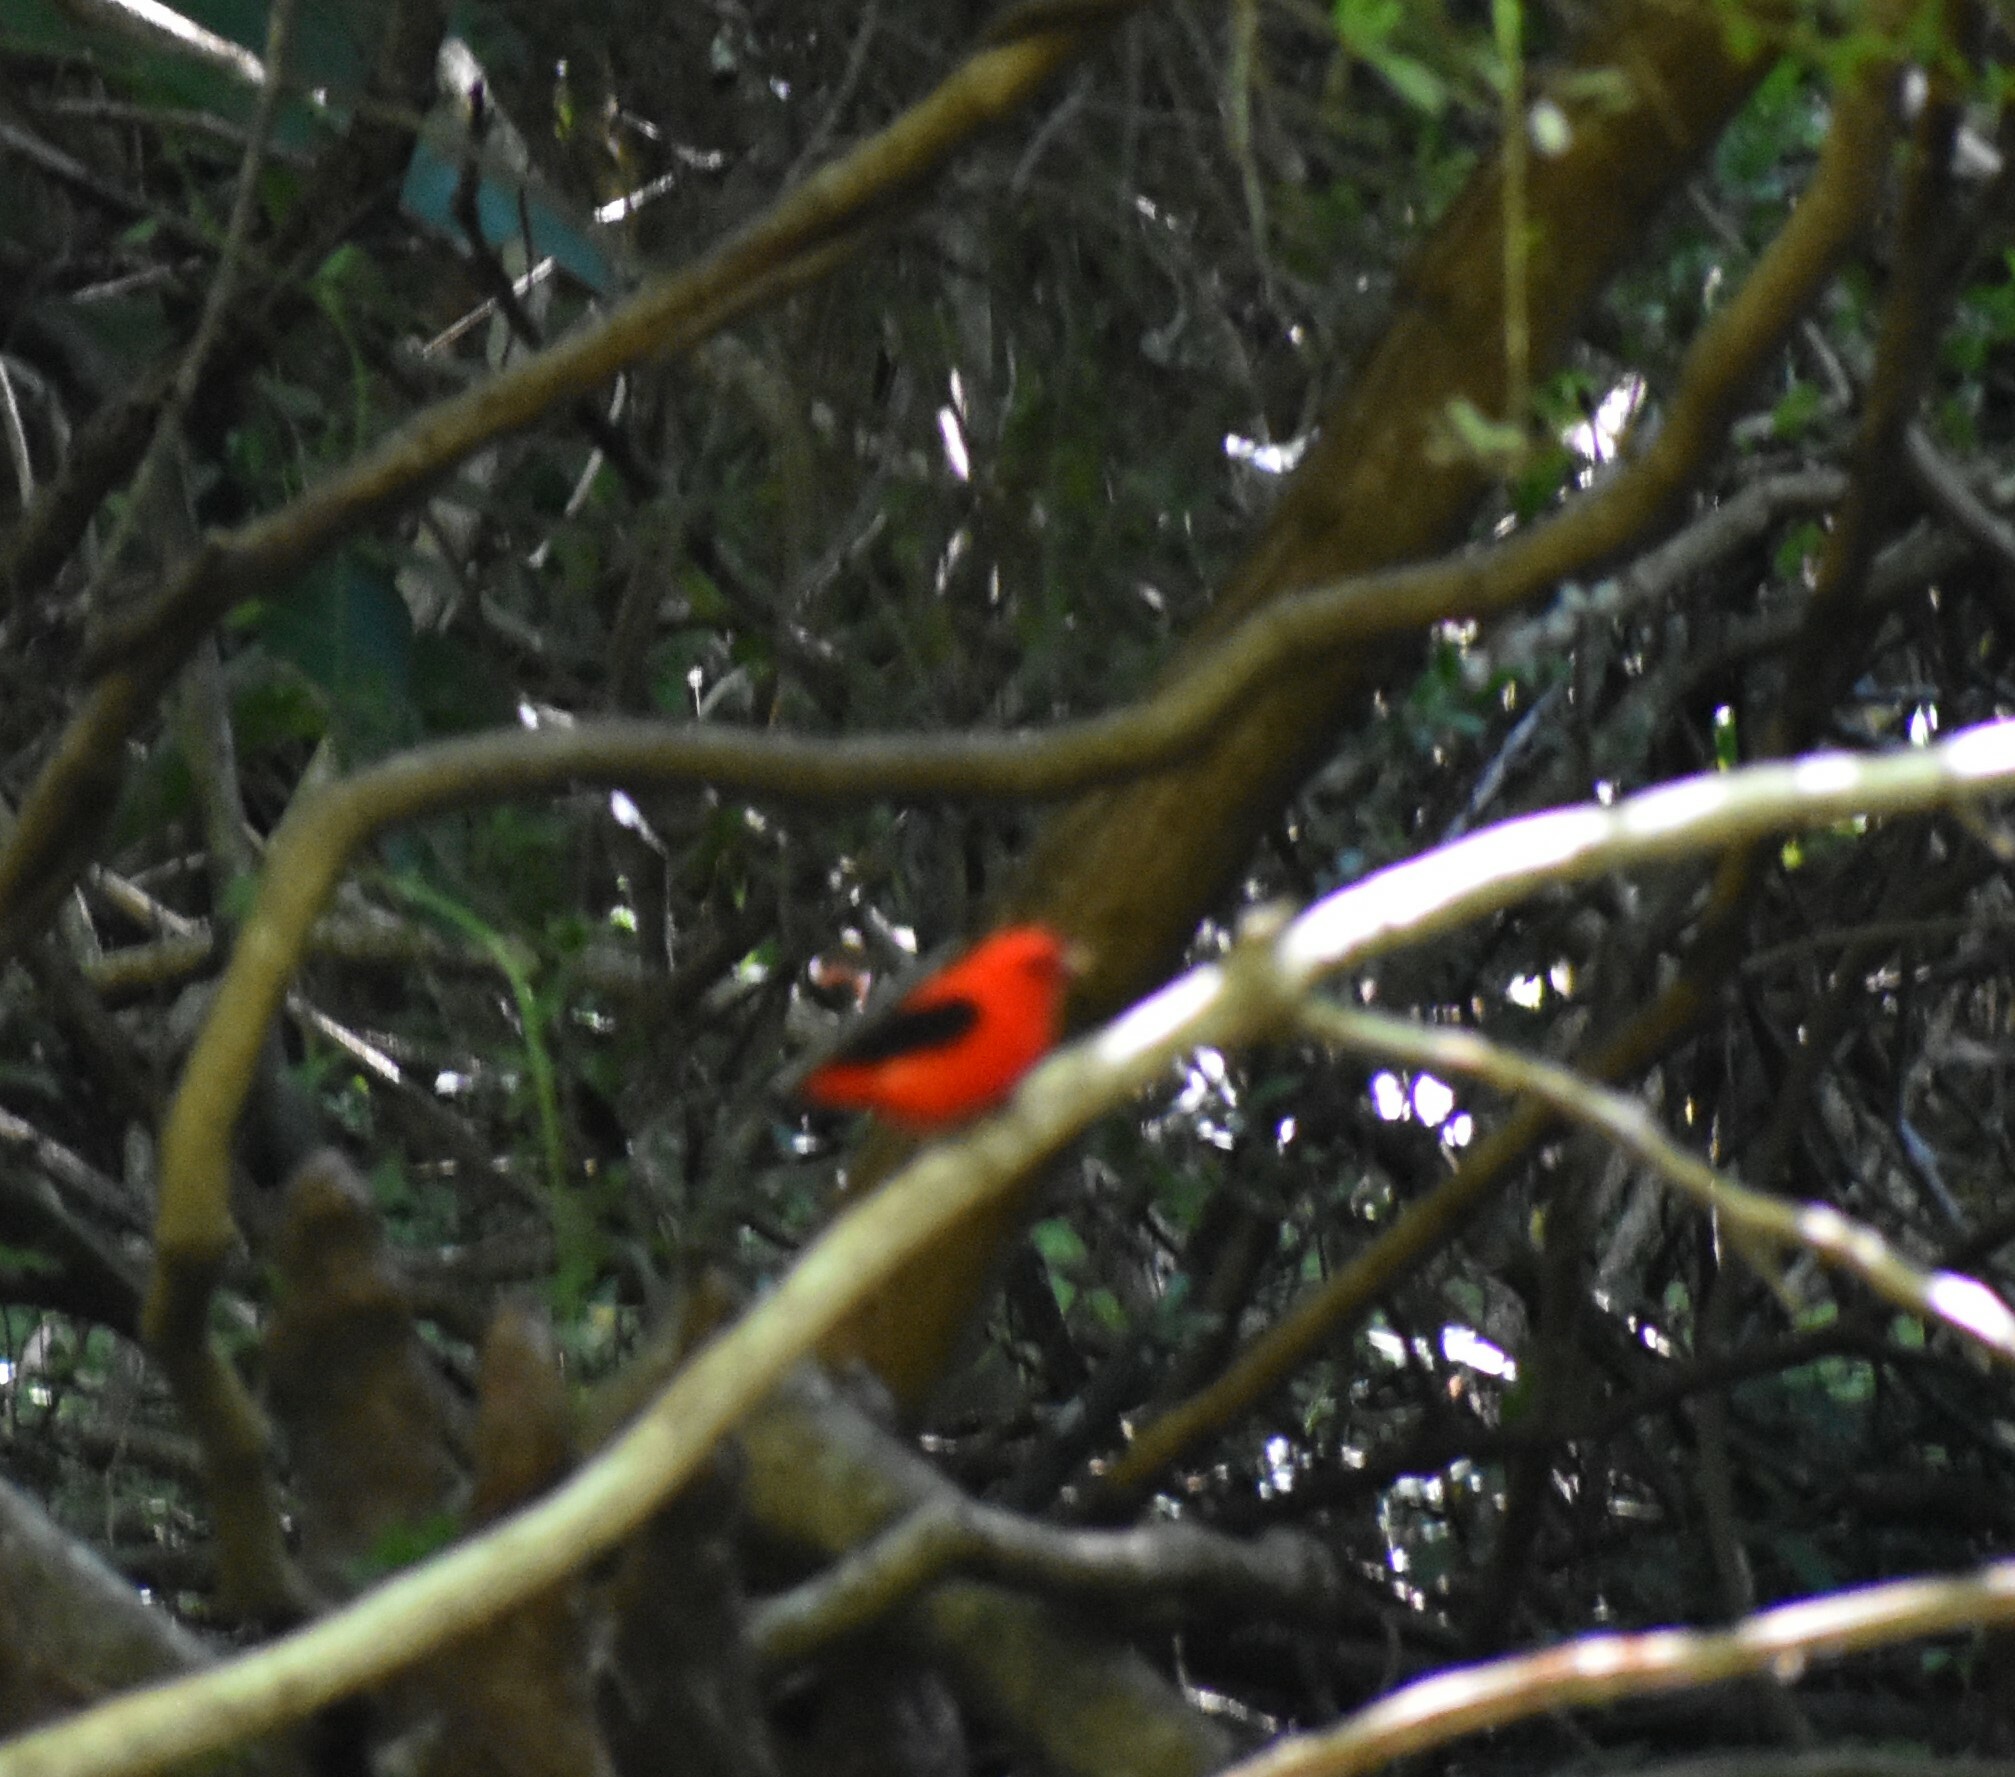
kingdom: Animalia
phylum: Chordata
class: Aves
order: Passeriformes
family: Cardinalidae
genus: Piranga
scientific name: Piranga olivacea
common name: Scarlet tanager
